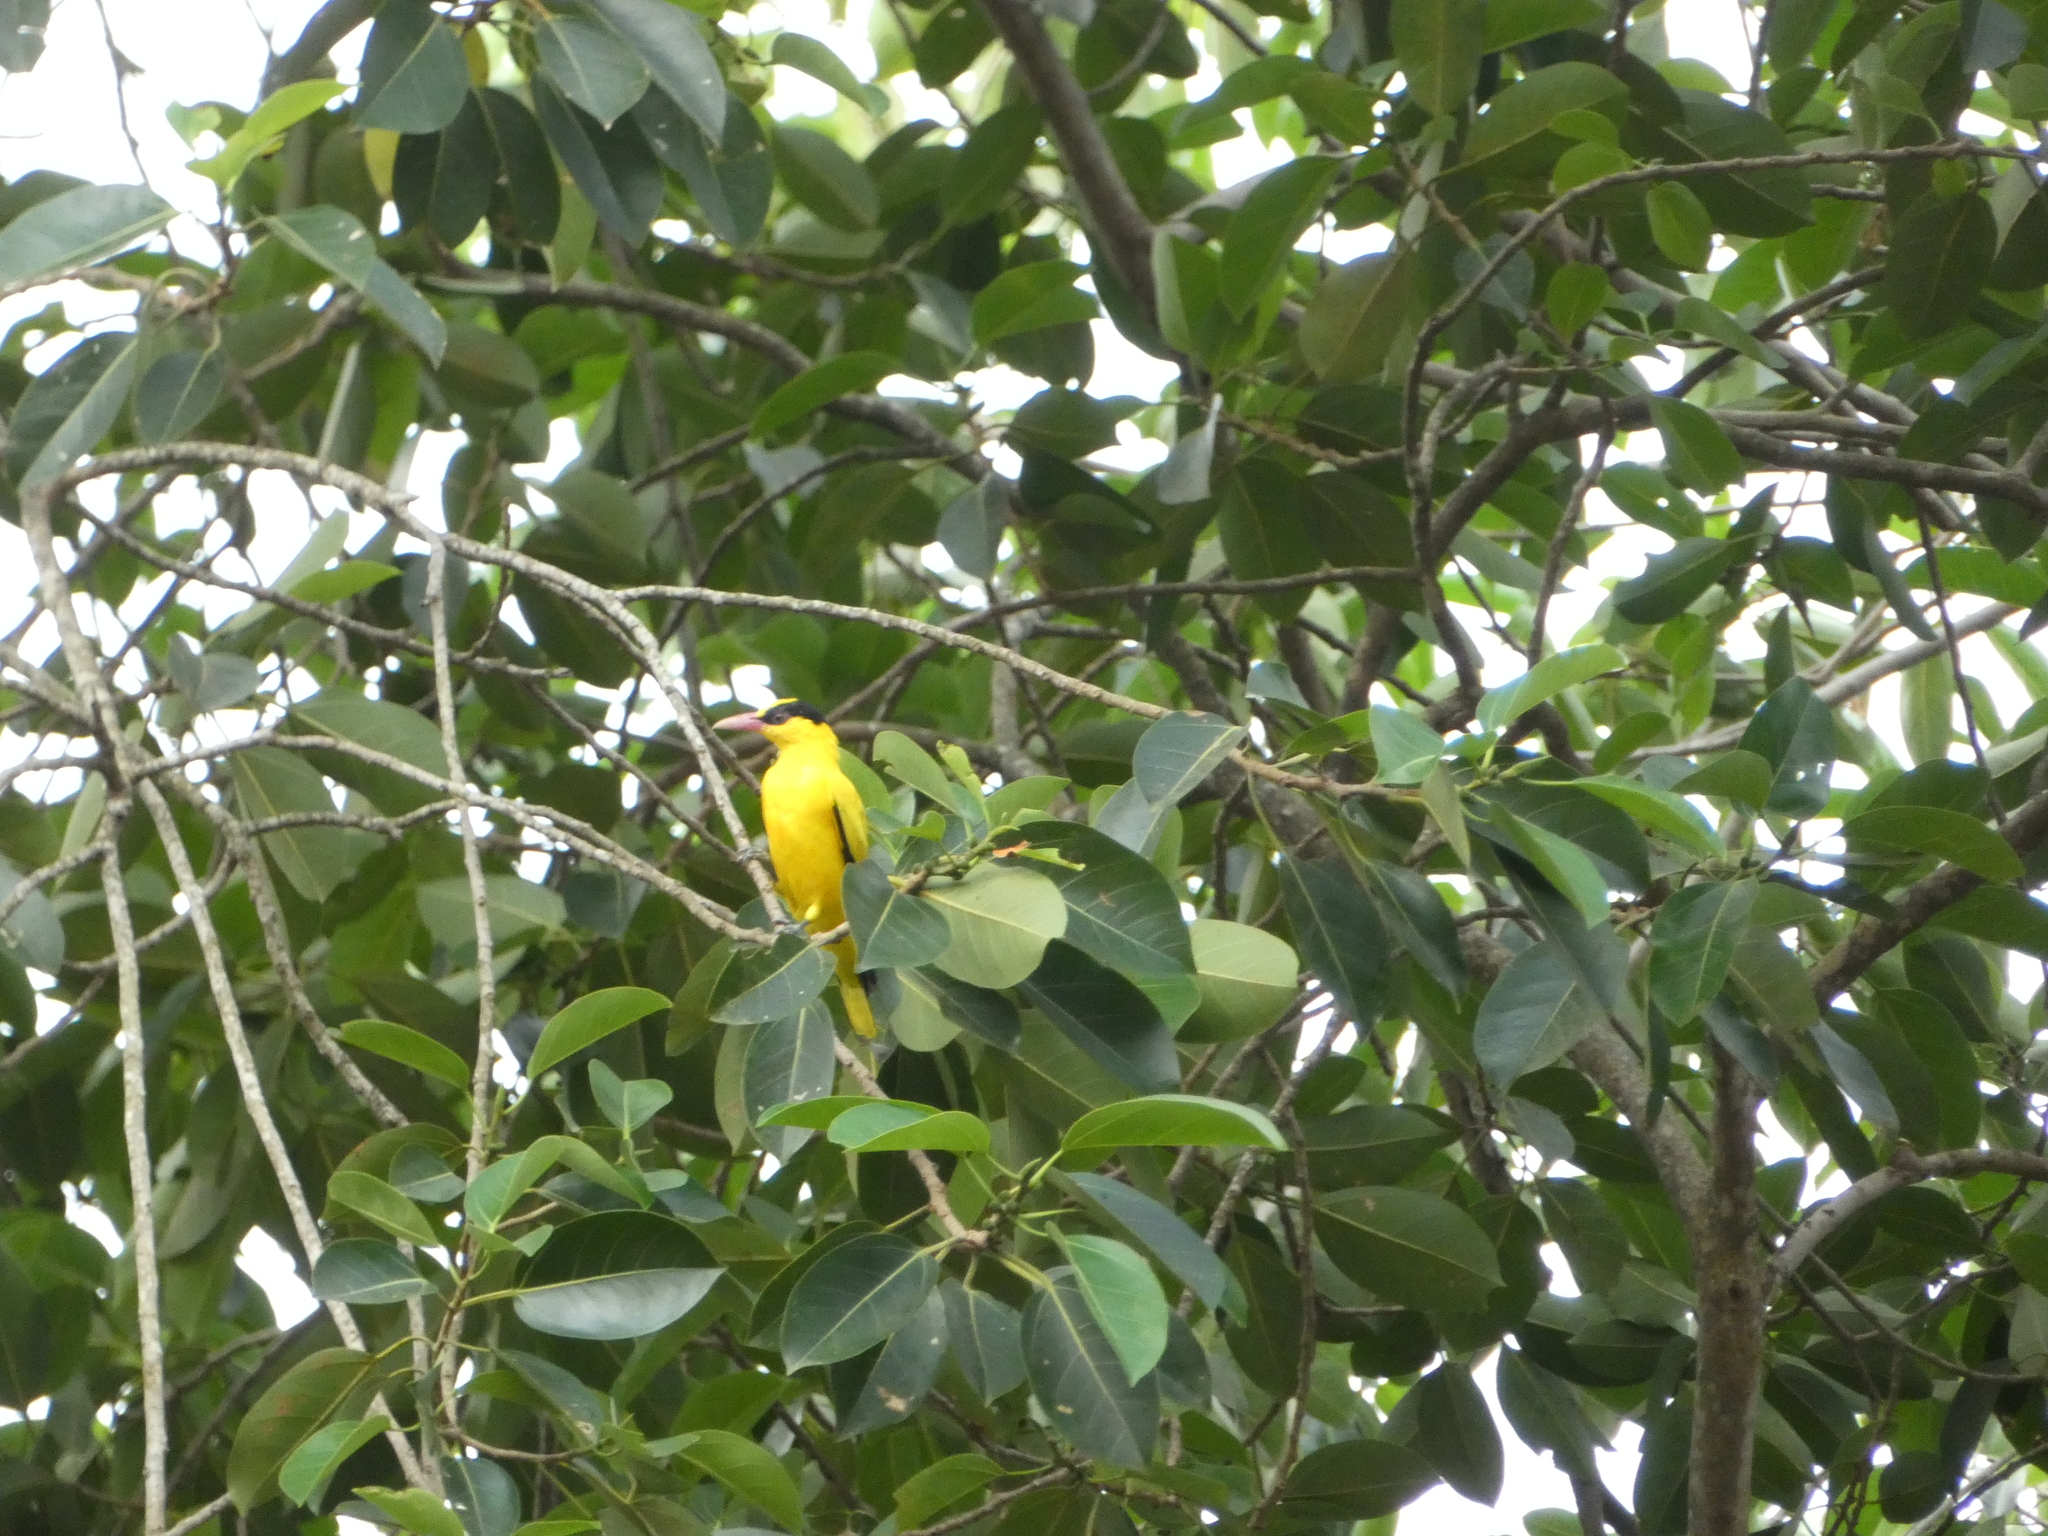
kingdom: Animalia
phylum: Chordata
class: Aves
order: Passeriformes
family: Oriolidae
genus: Oriolus
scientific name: Oriolus chinensis
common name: Black-naped oriole
